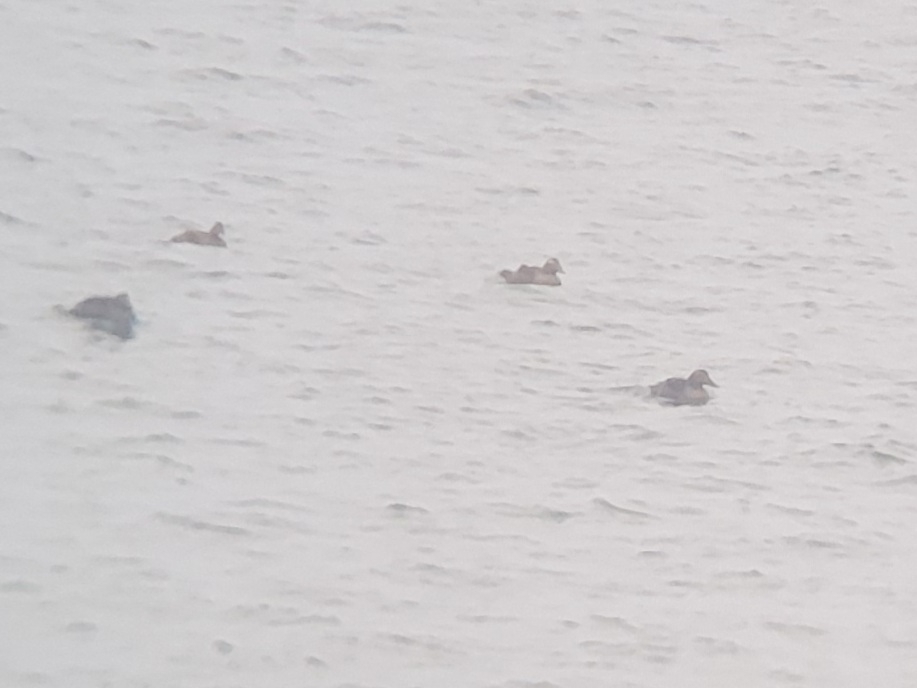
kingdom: Animalia
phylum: Chordata
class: Aves
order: Anseriformes
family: Anatidae
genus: Somateria
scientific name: Somateria mollissima
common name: Common eider
